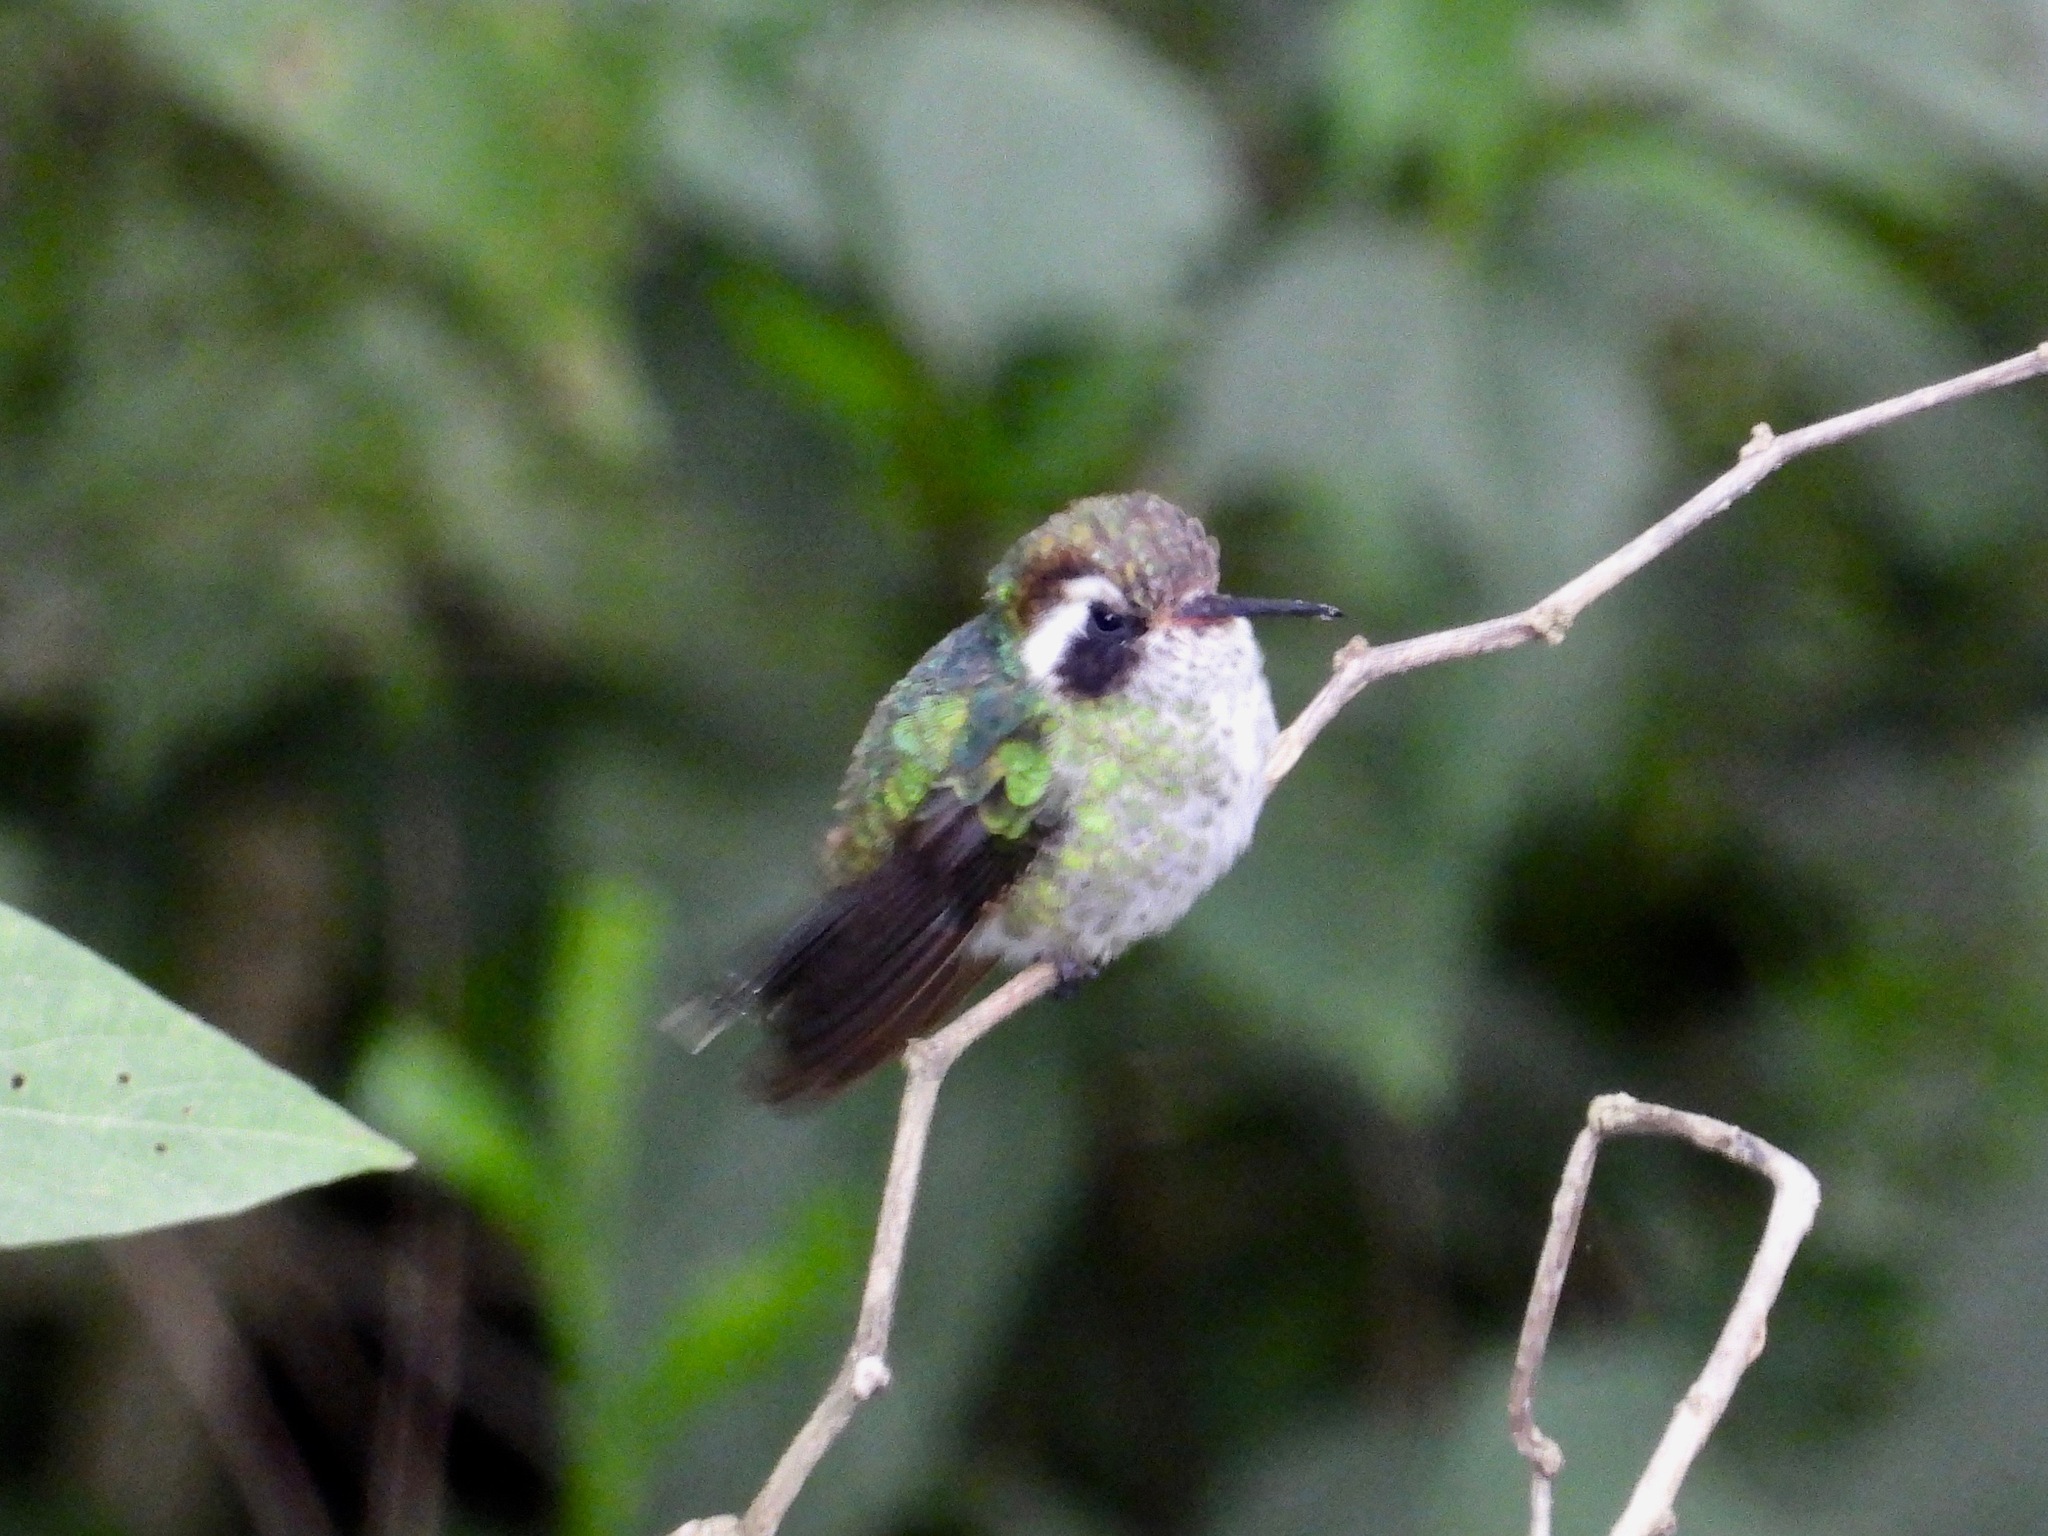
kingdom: Animalia
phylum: Chordata
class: Aves
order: Apodiformes
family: Trochilidae
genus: Basilinna
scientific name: Basilinna leucotis
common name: White-eared hummingbird
